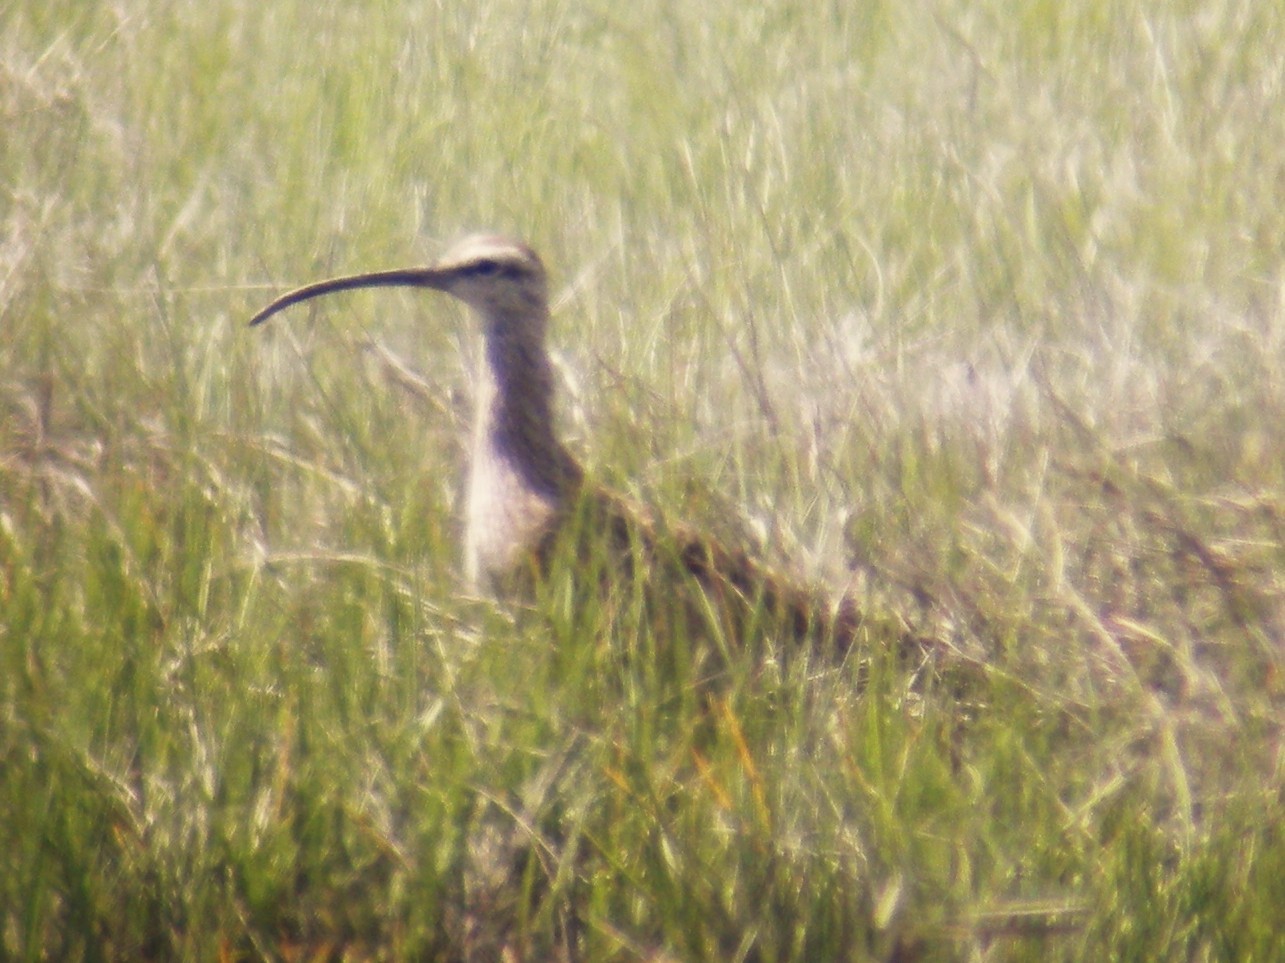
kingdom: Animalia
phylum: Chordata
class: Aves
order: Charadriiformes
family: Scolopacidae
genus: Numenius
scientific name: Numenius phaeopus
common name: Whimbrel
